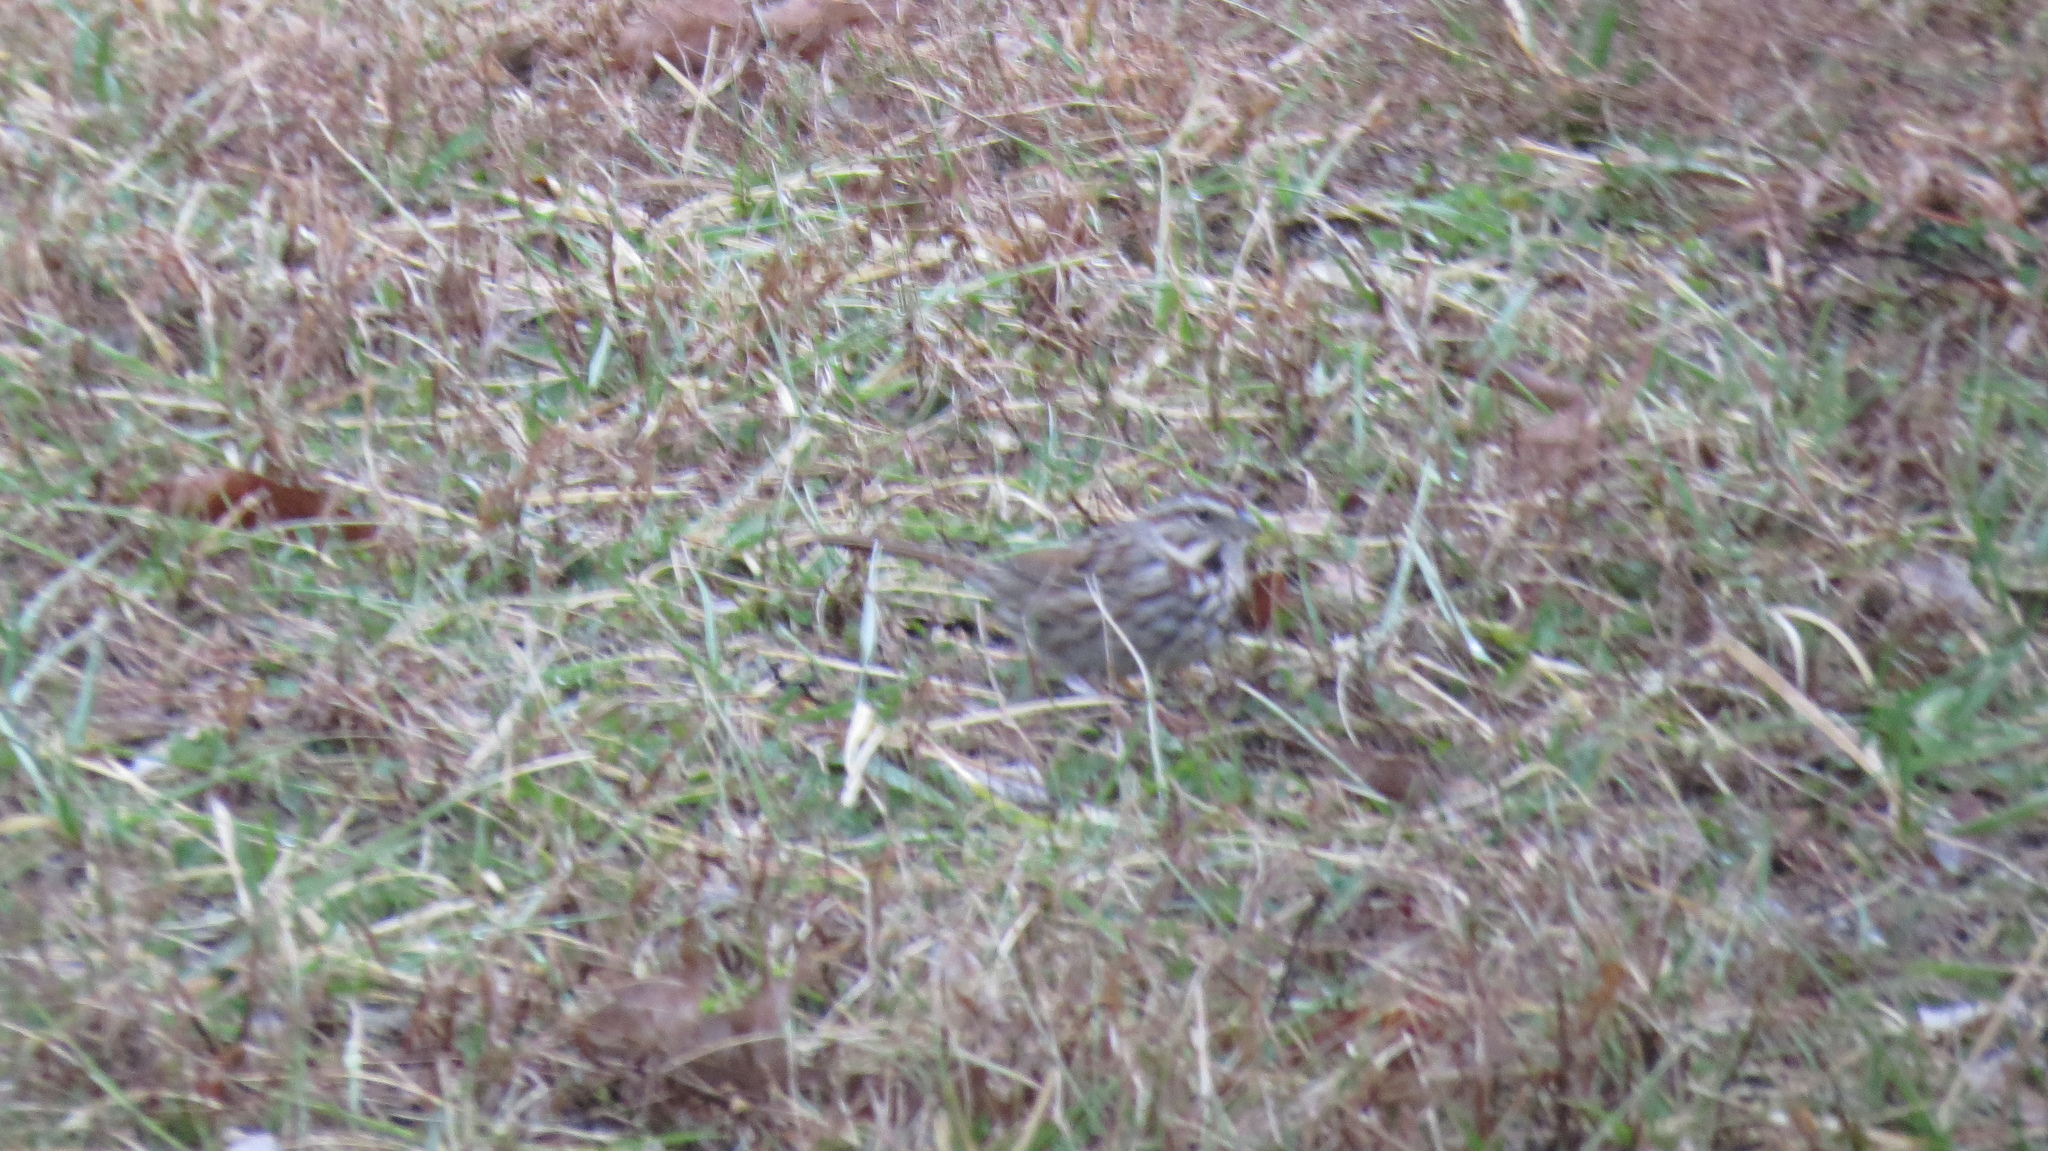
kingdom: Animalia
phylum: Chordata
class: Aves
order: Passeriformes
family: Passerellidae
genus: Melospiza
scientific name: Melospiza melodia
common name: Song sparrow
